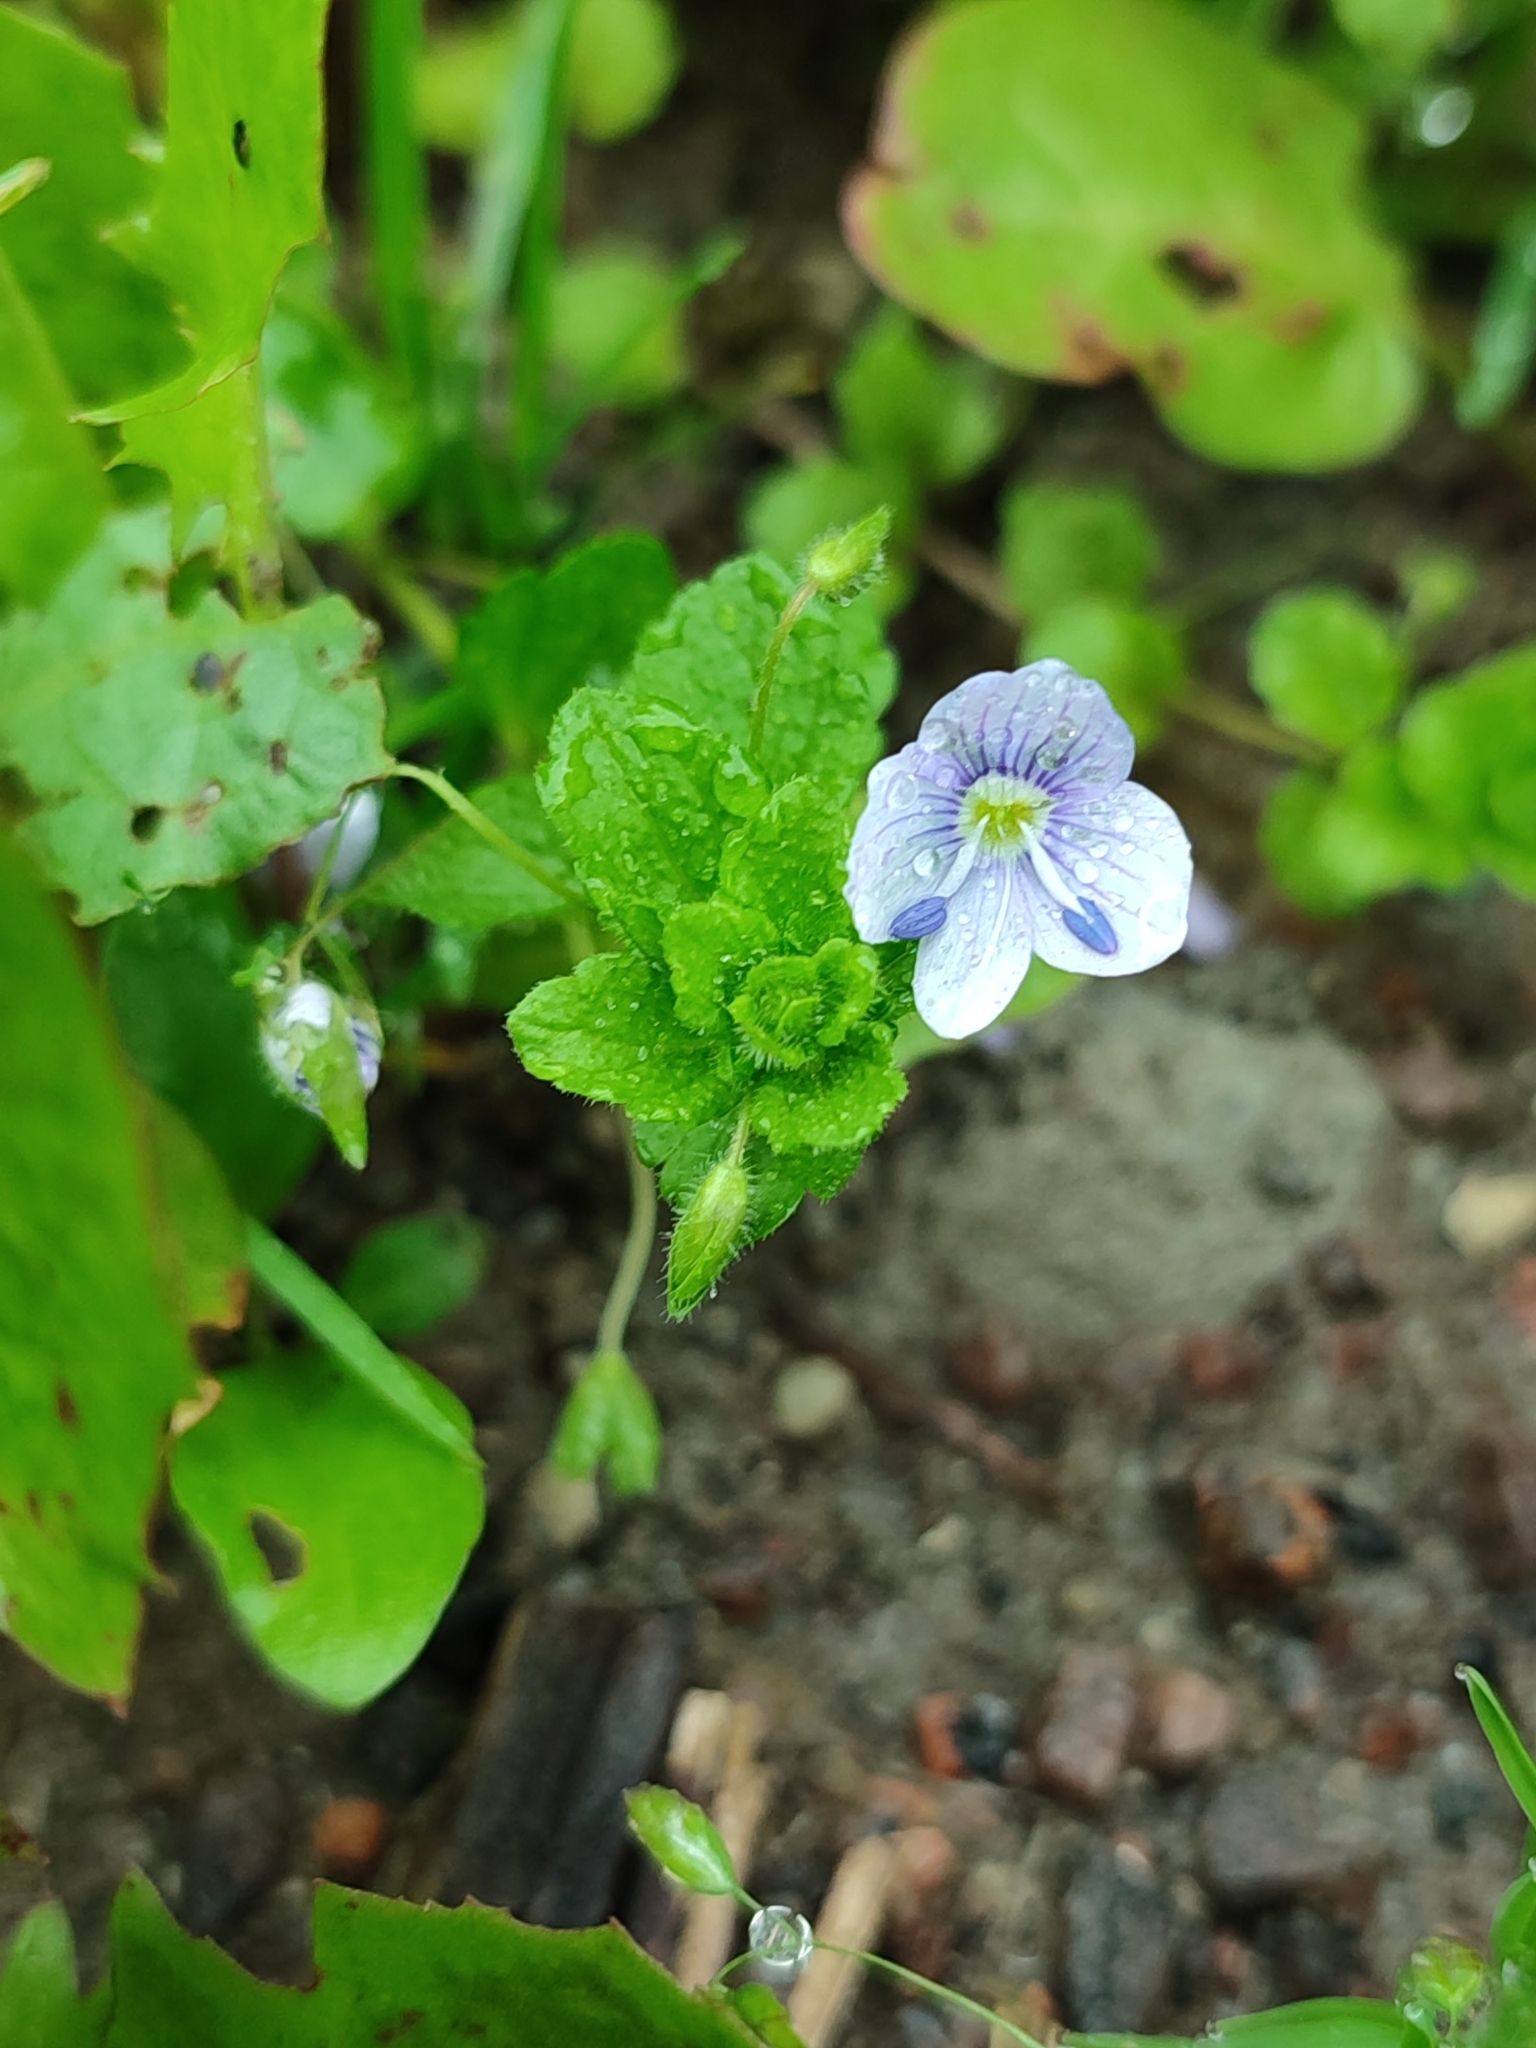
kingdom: Plantae
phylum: Tracheophyta
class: Magnoliopsida
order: Lamiales
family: Plantaginaceae
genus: Veronica
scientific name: Veronica filiformis
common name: Slender speedwell
